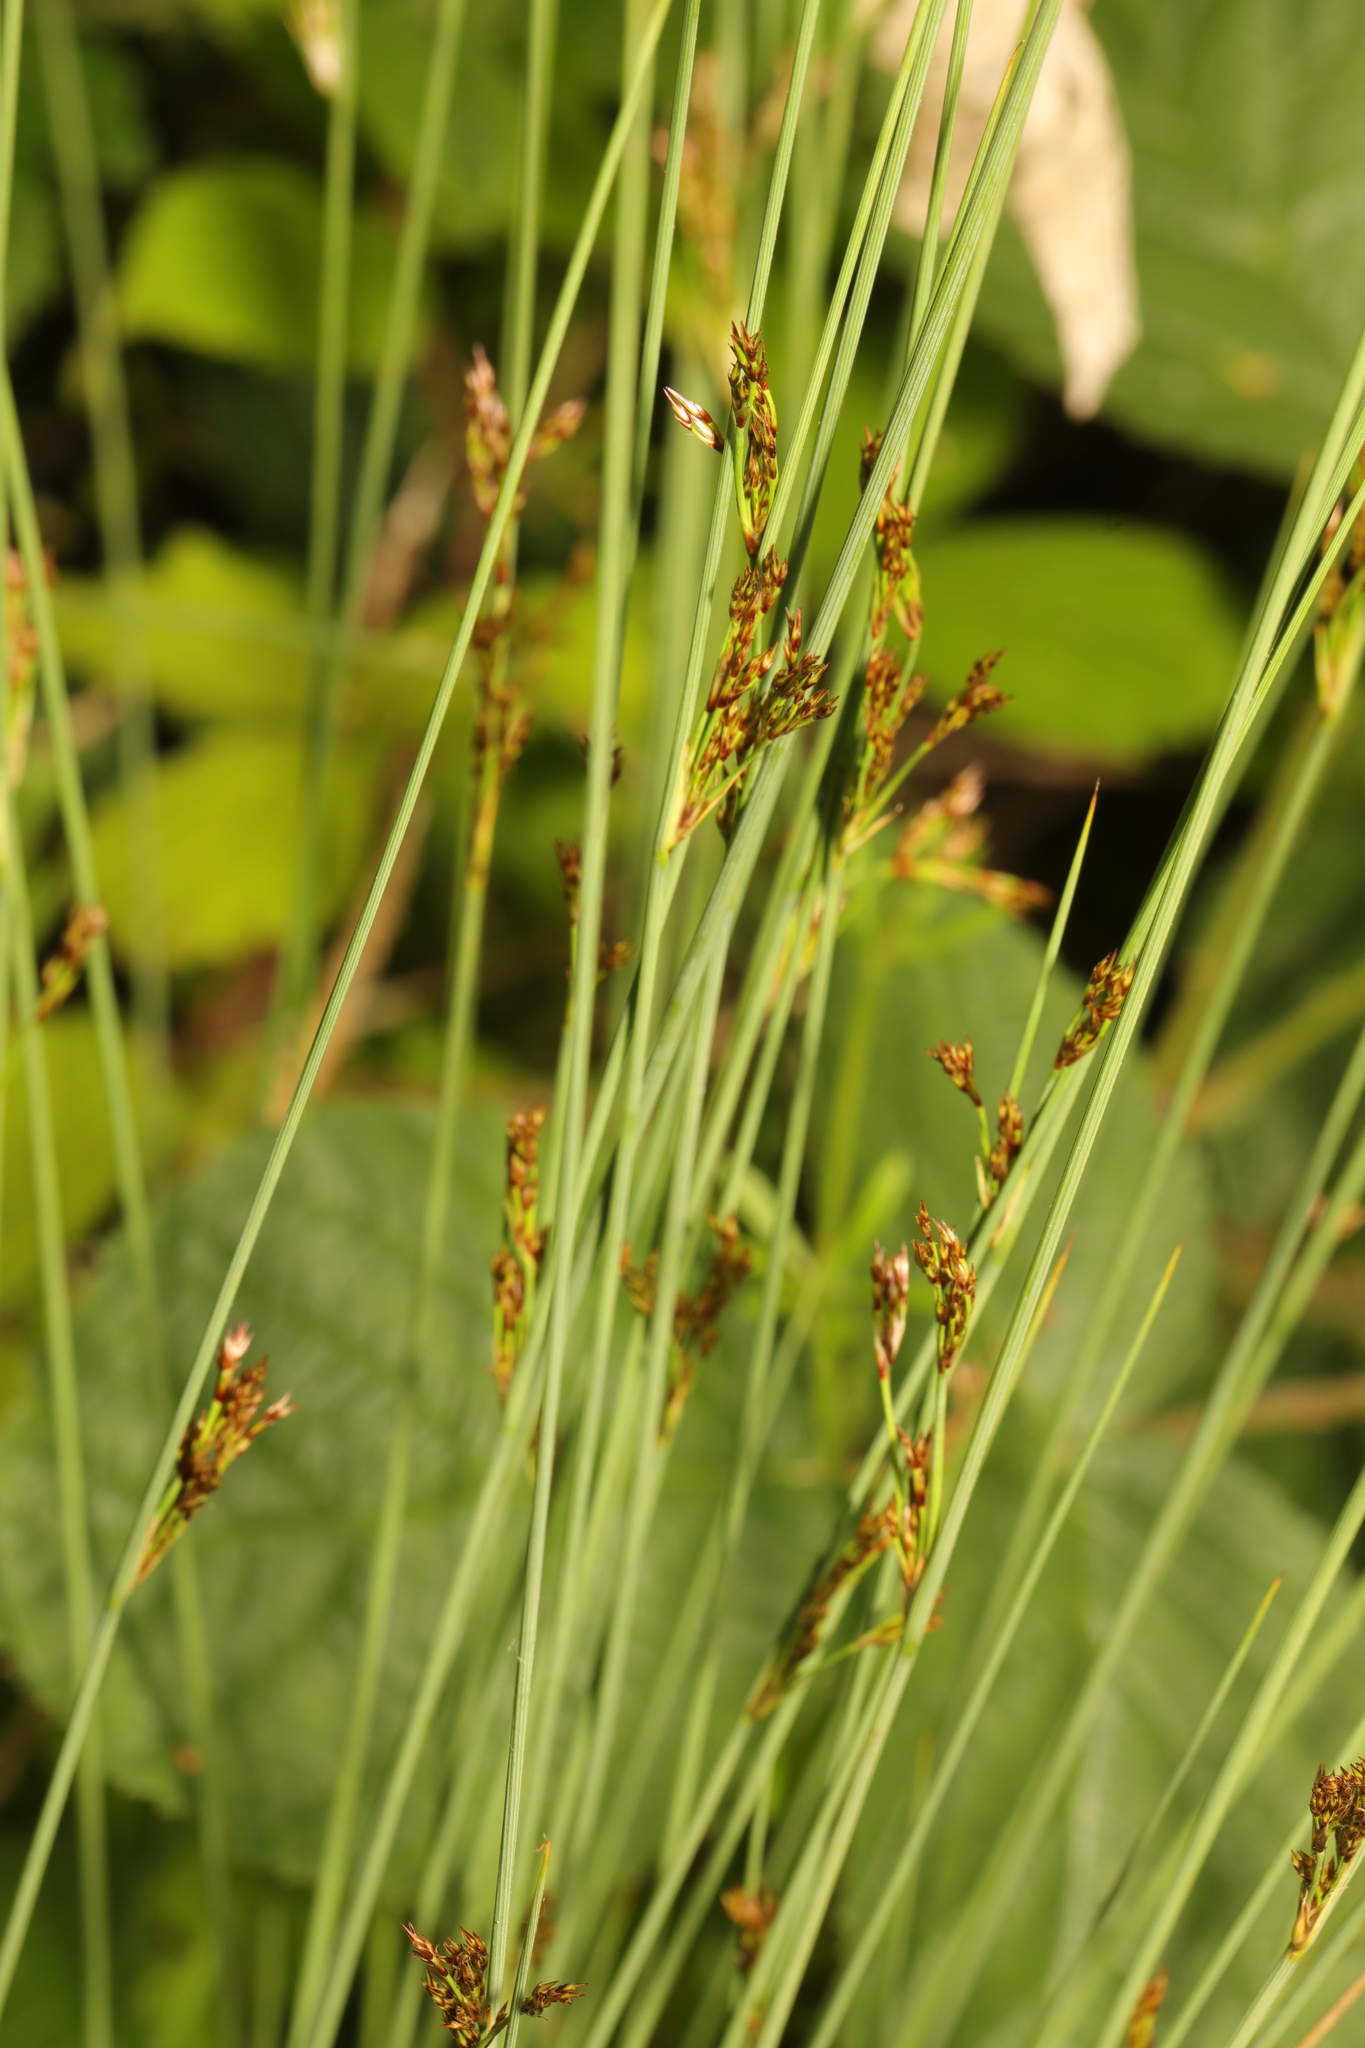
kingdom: Plantae
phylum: Tracheophyta
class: Liliopsida
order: Poales
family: Juncaceae
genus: Juncus
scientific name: Juncus inflexus
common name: Hard rush
